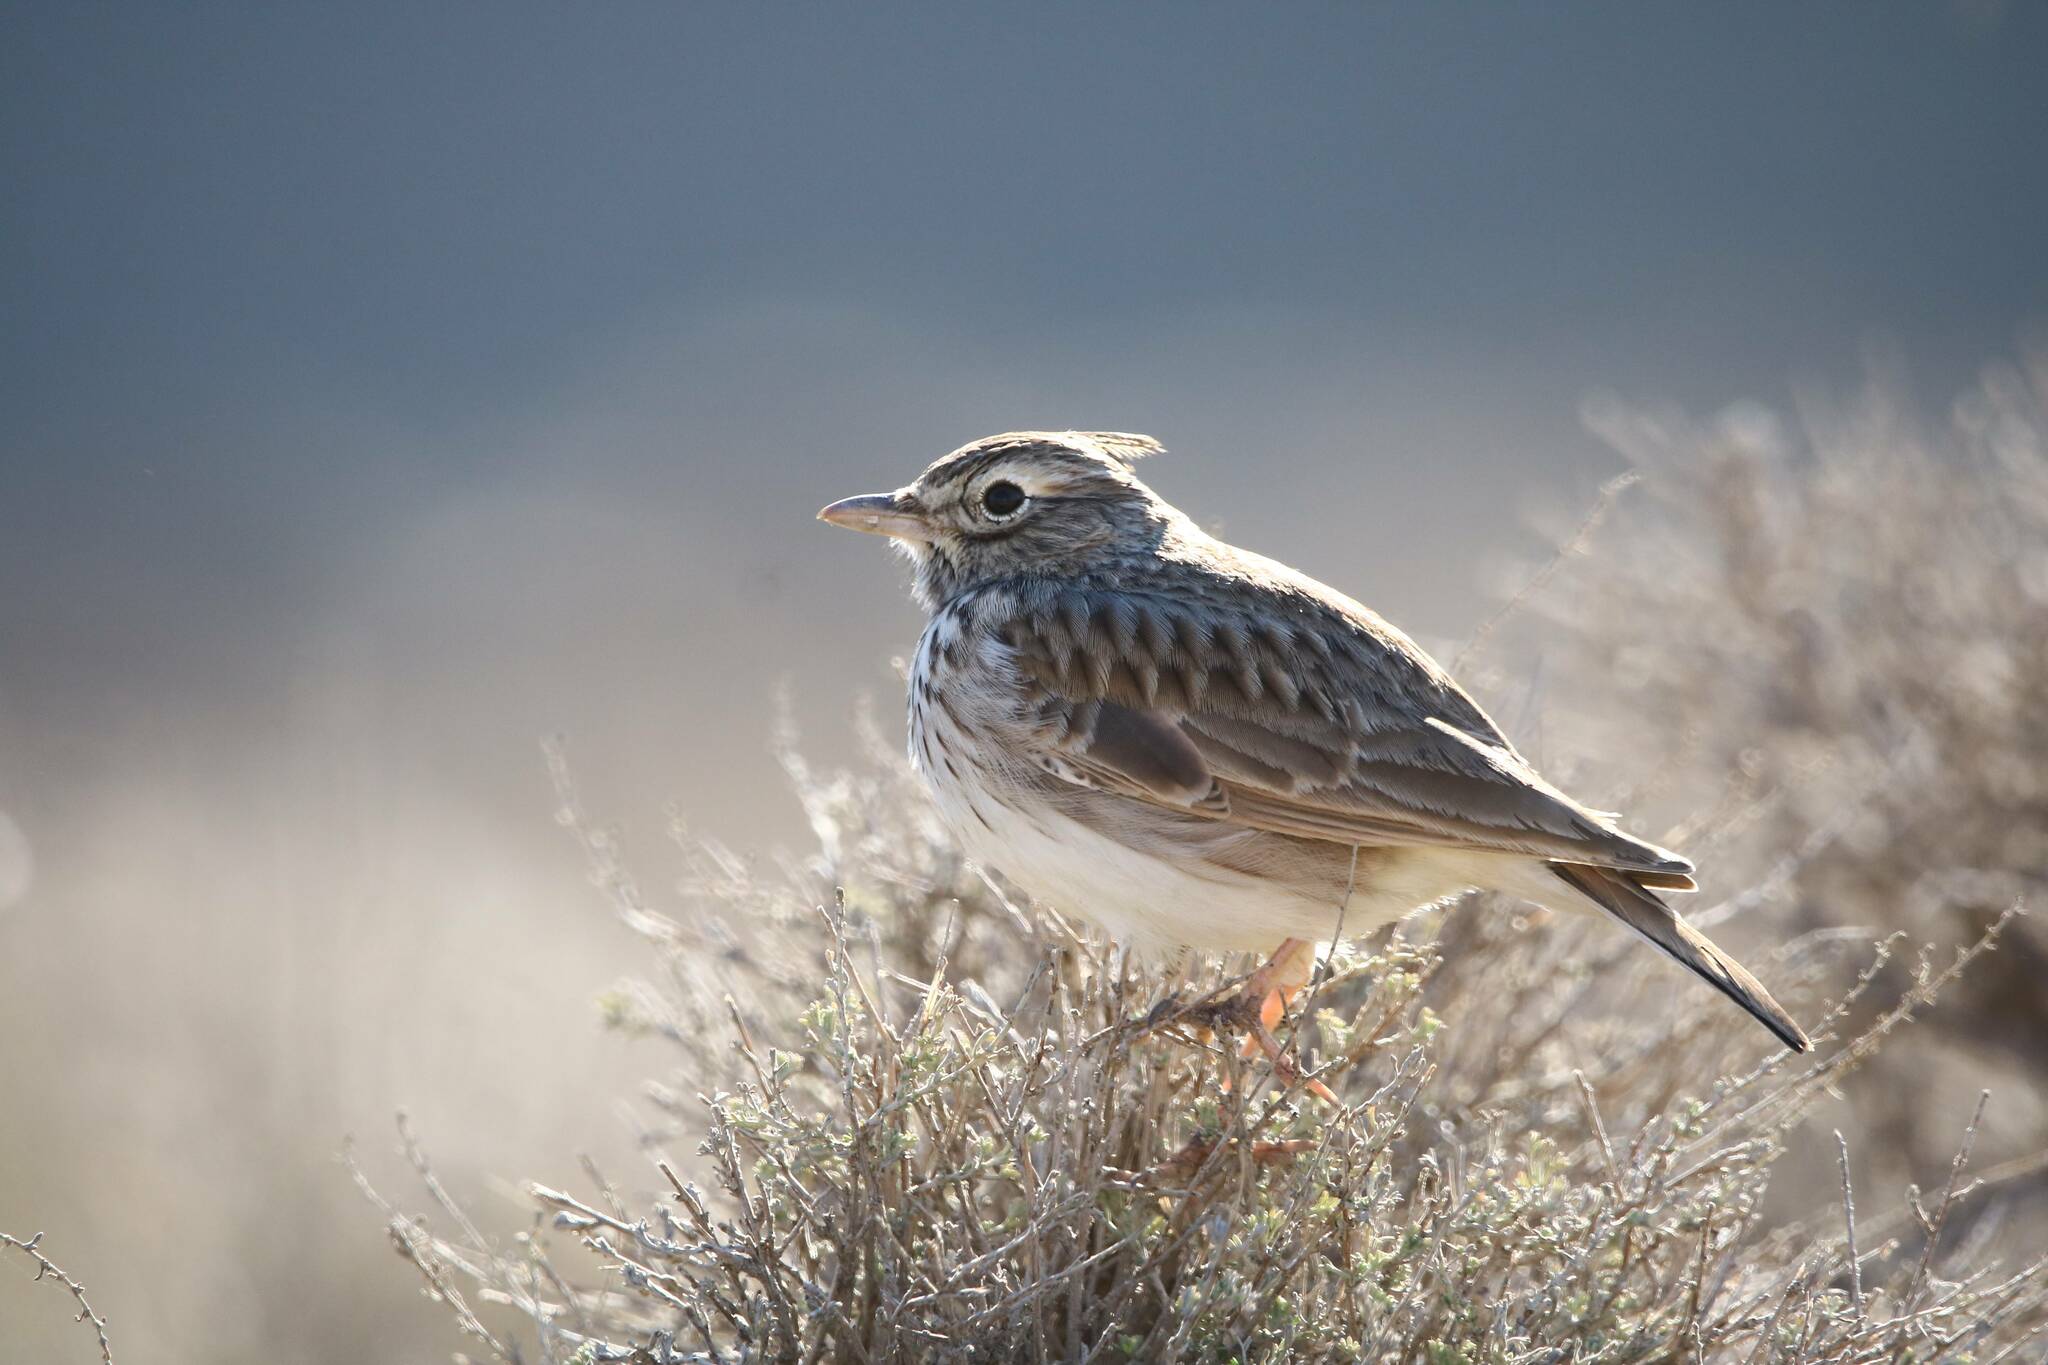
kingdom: Animalia
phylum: Chordata
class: Aves
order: Passeriformes
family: Alaudidae
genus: Galerida
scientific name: Galerida theklae
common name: Thekla lark
